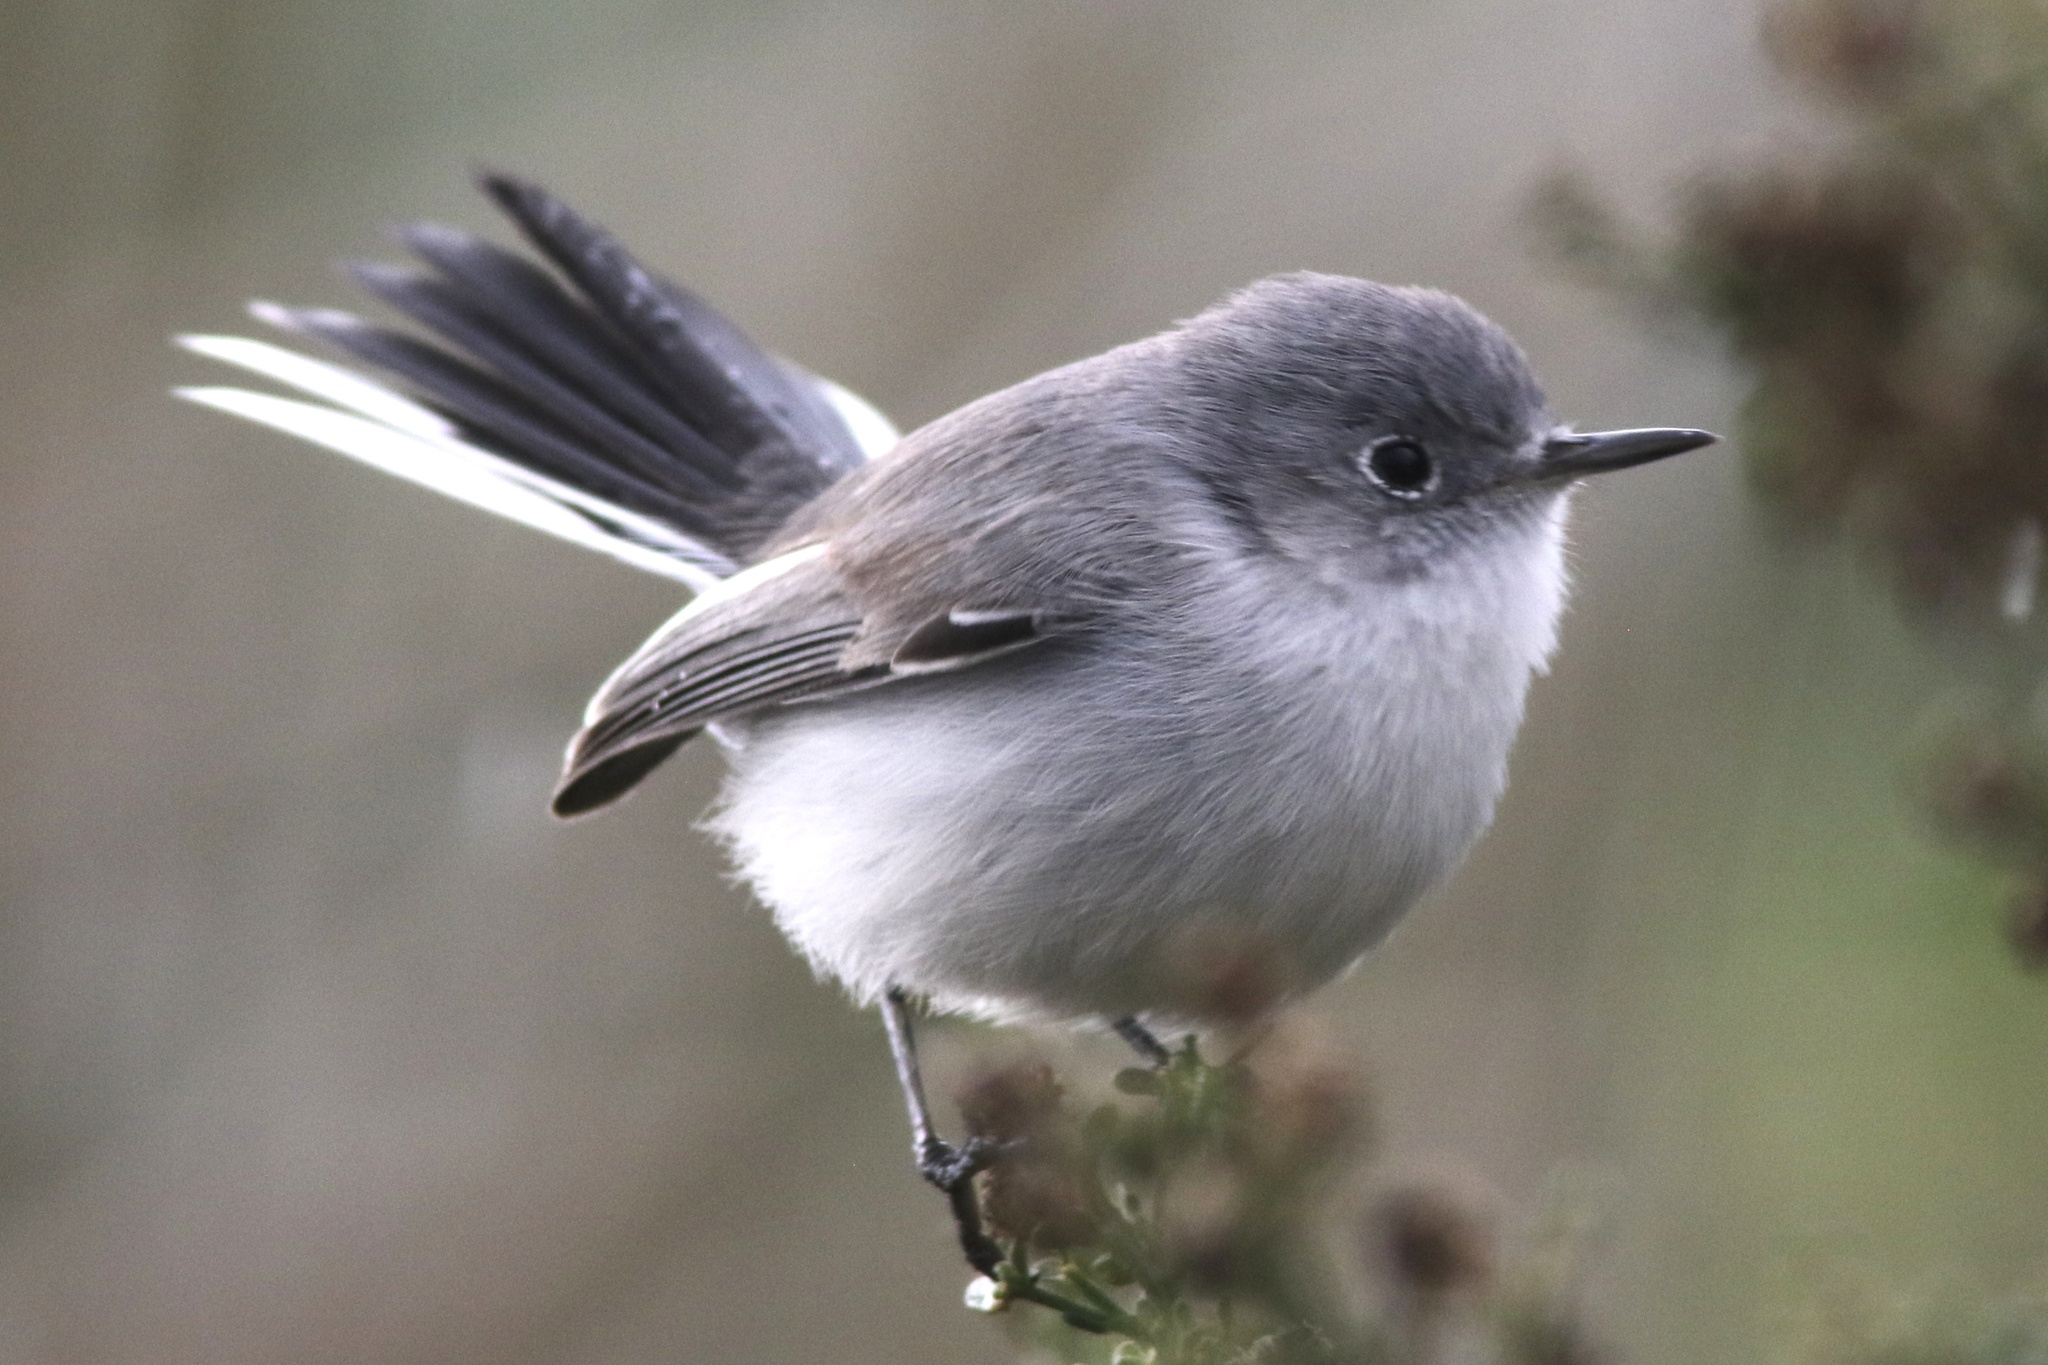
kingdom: Animalia
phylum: Chordata
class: Aves
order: Passeriformes
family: Polioptilidae
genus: Polioptila
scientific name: Polioptila caerulea
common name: Blue-gray gnatcatcher
